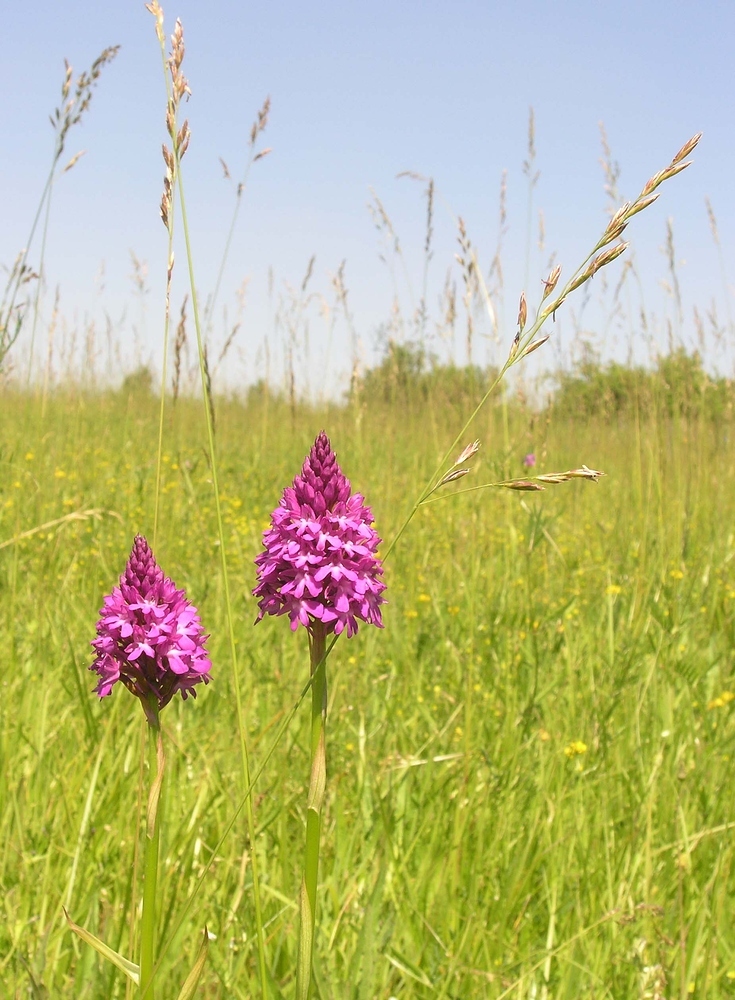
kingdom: Plantae
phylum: Tracheophyta
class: Liliopsida
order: Asparagales
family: Orchidaceae
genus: Anacamptis
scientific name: Anacamptis pyramidalis
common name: Pyramidal orchid
